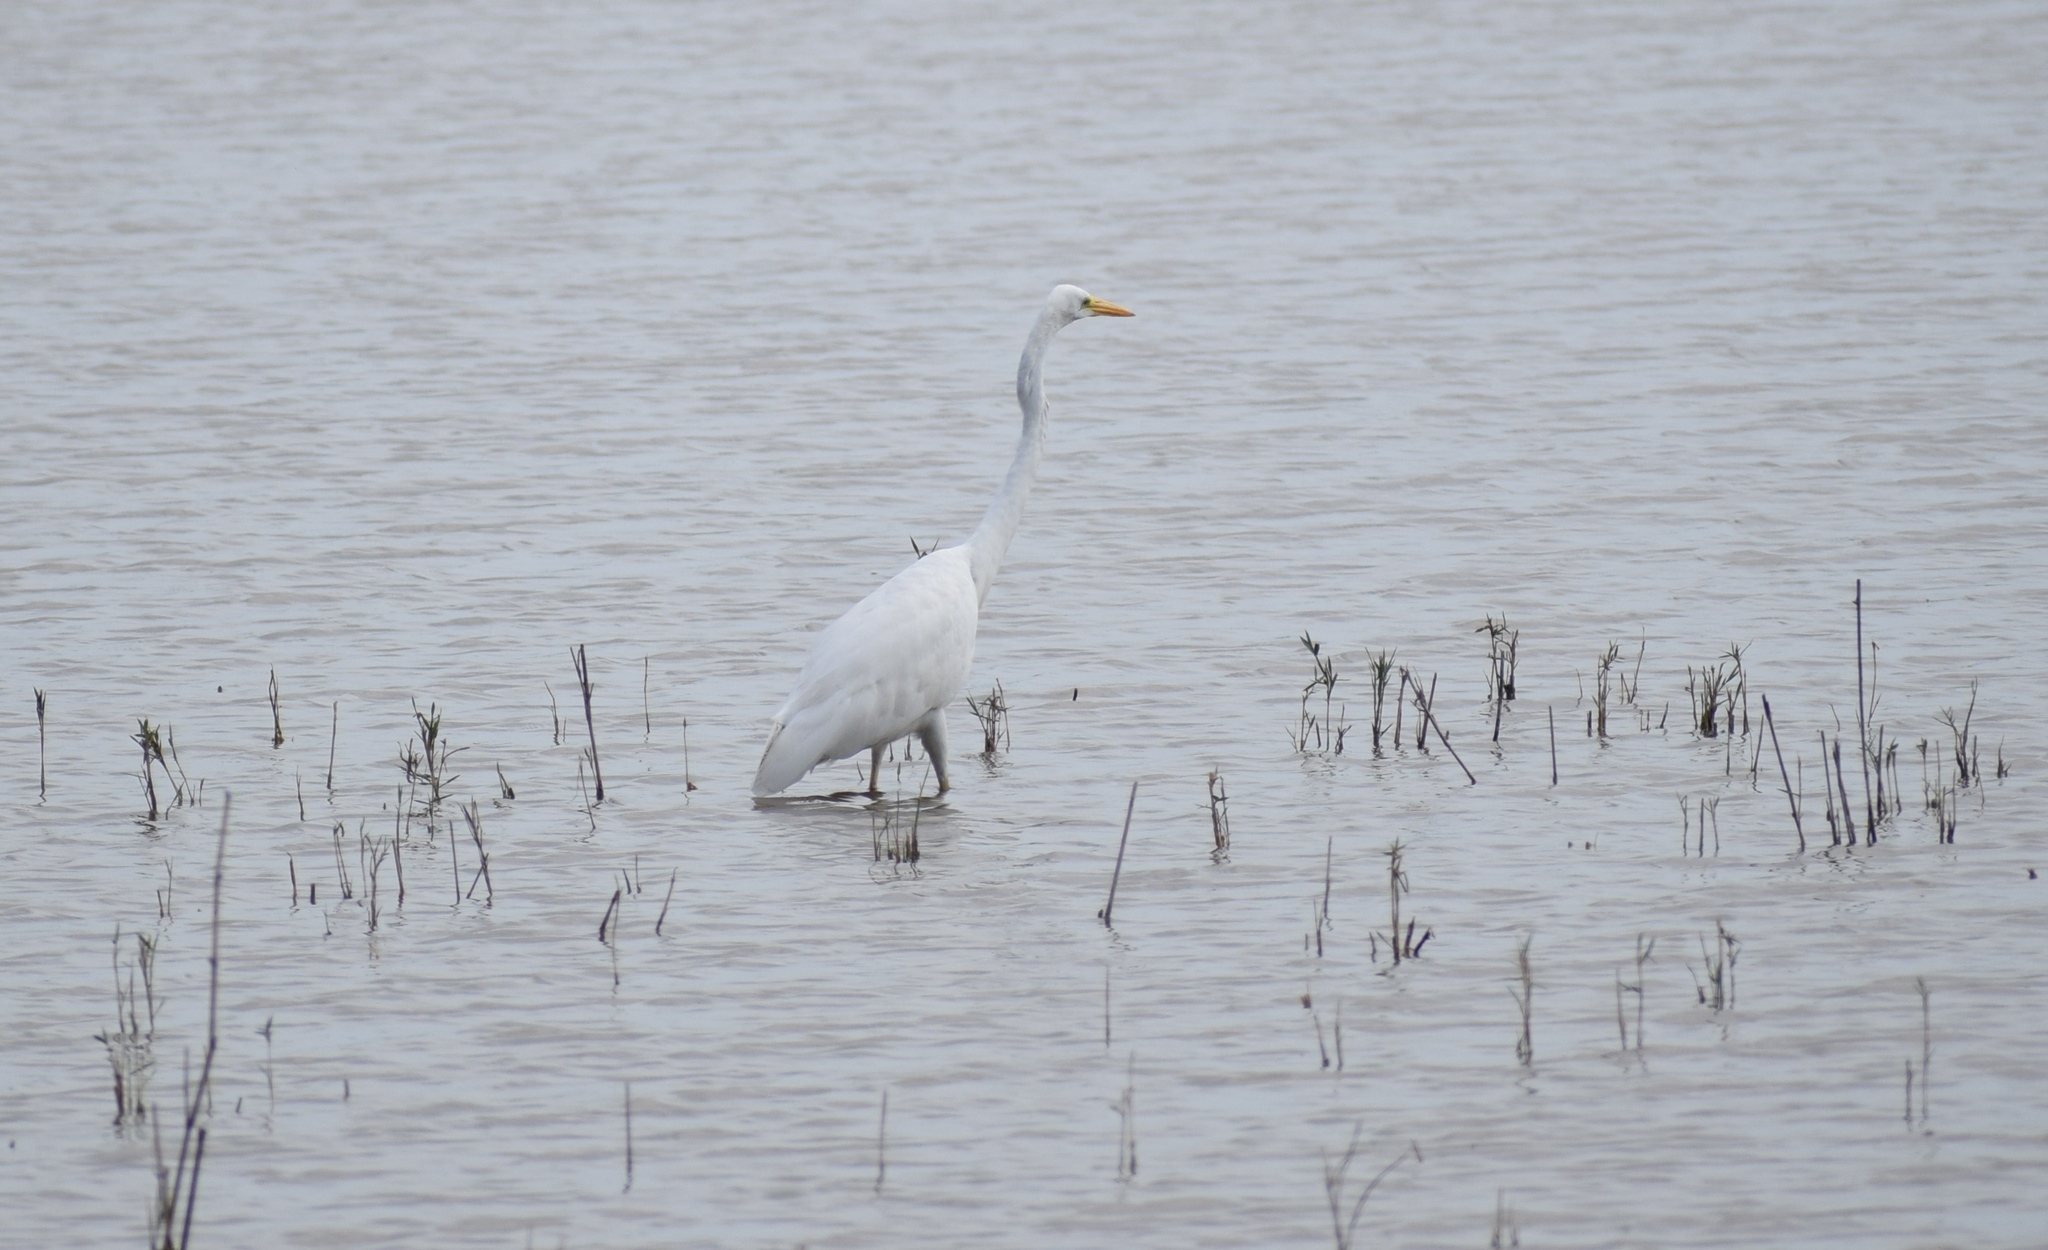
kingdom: Animalia
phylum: Chordata
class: Aves
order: Pelecaniformes
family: Ardeidae
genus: Ardea
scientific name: Ardea alba
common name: Great egret
